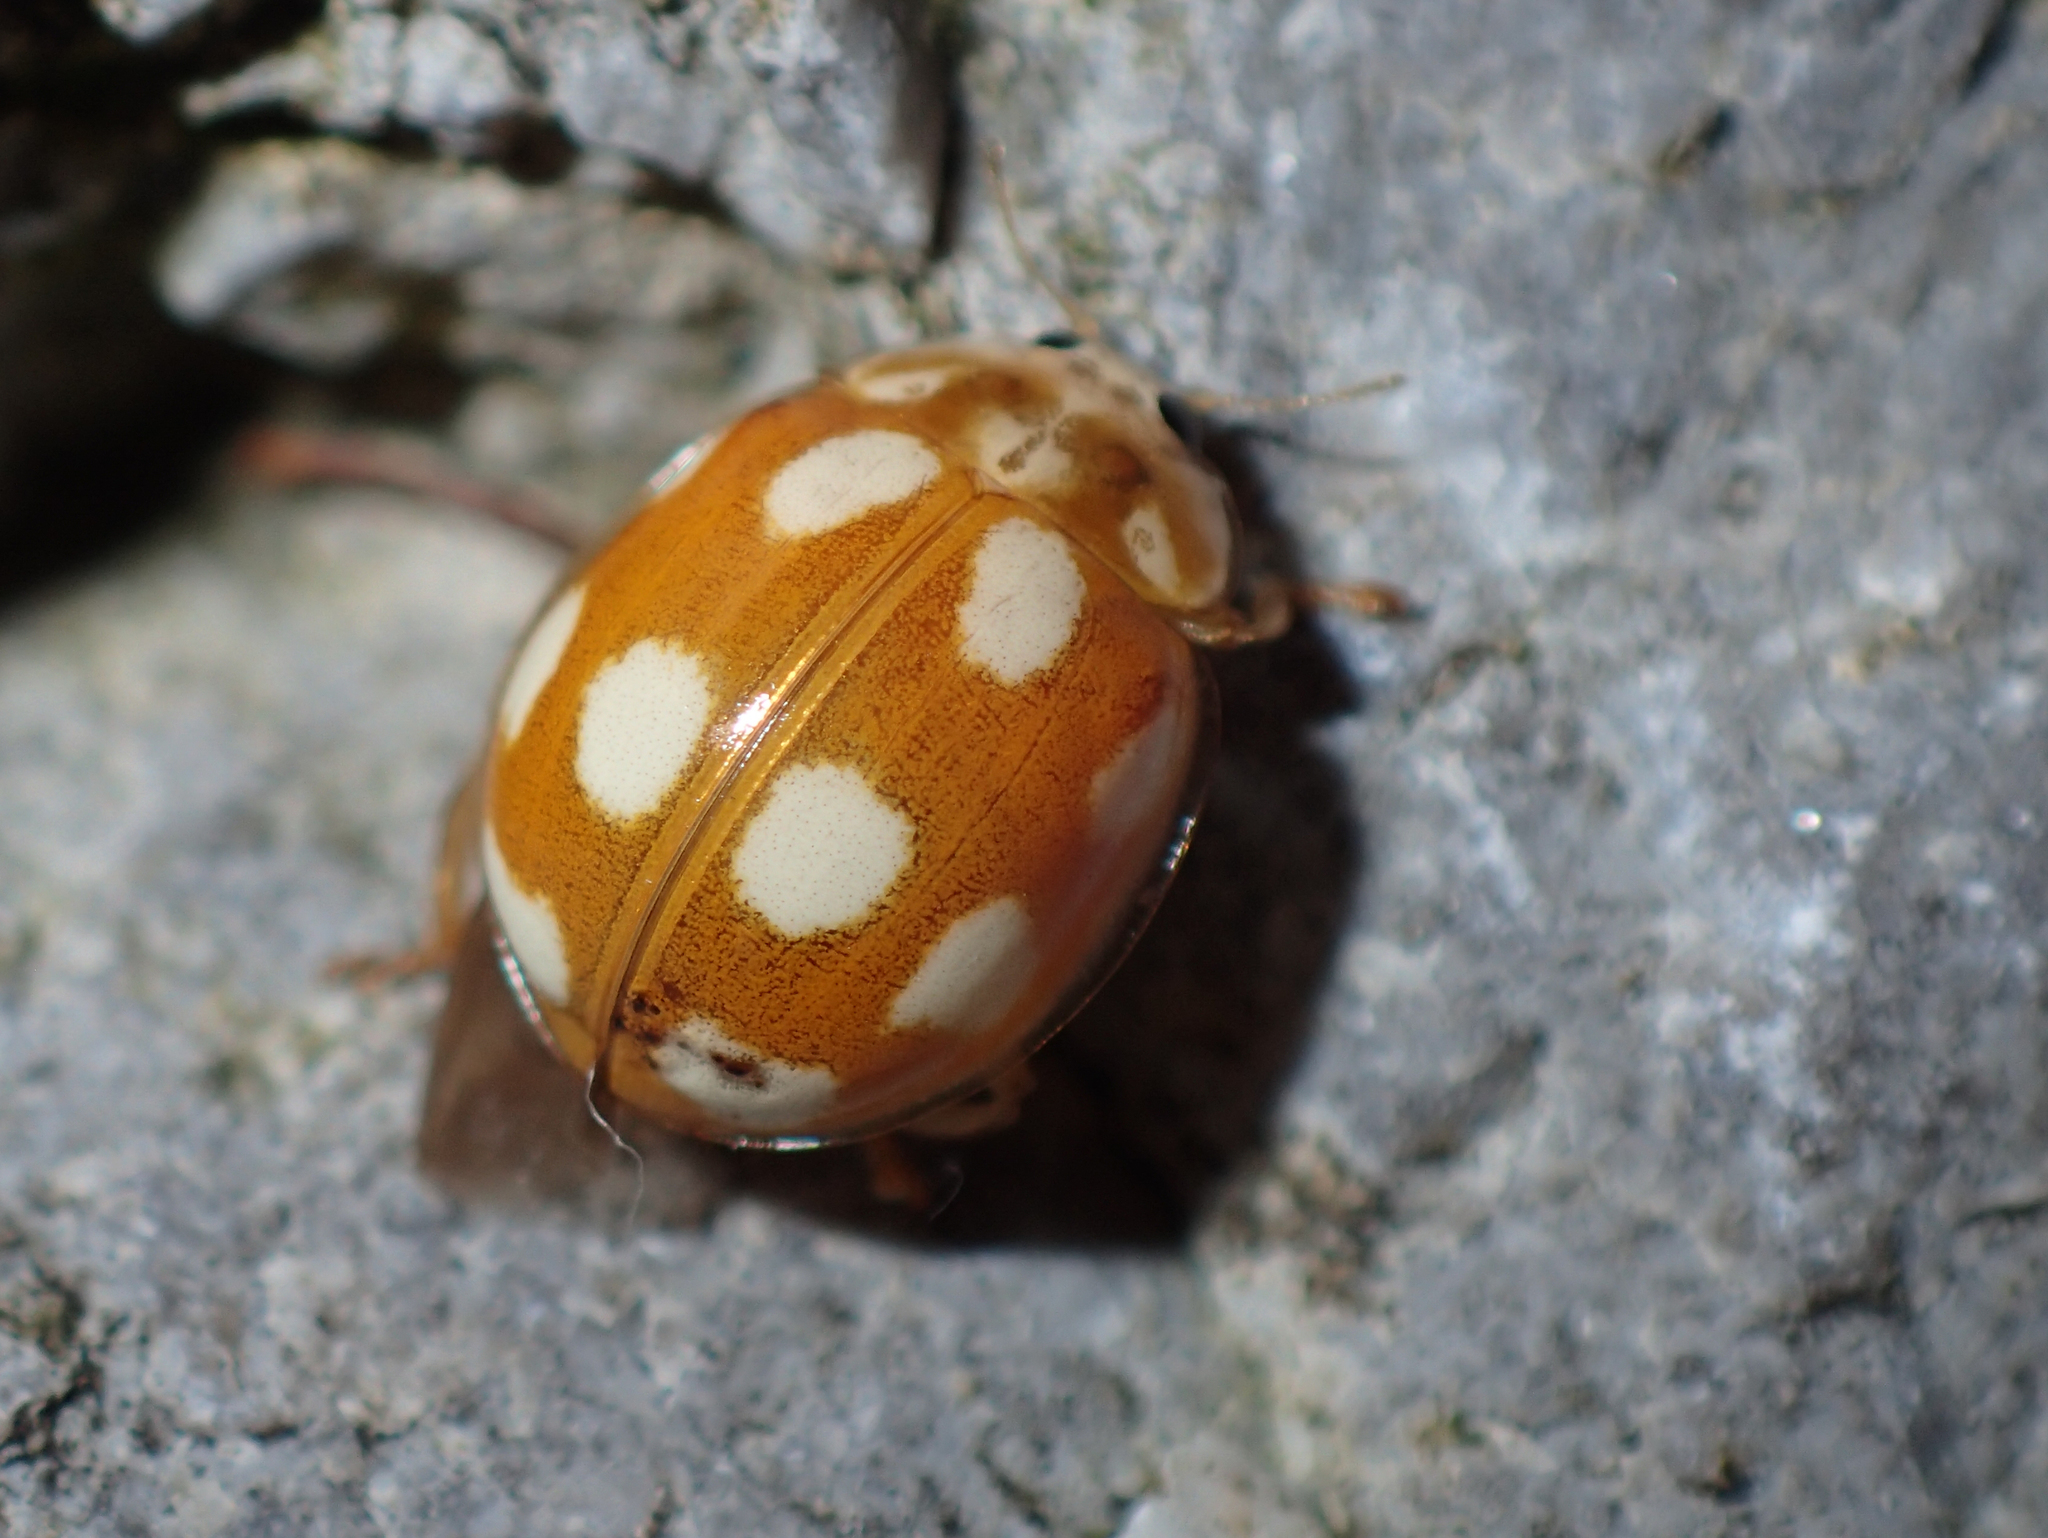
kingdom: Animalia
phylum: Arthropoda
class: Insecta
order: Coleoptera
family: Coccinellidae
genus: Calvia
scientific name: Calvia decemguttata
